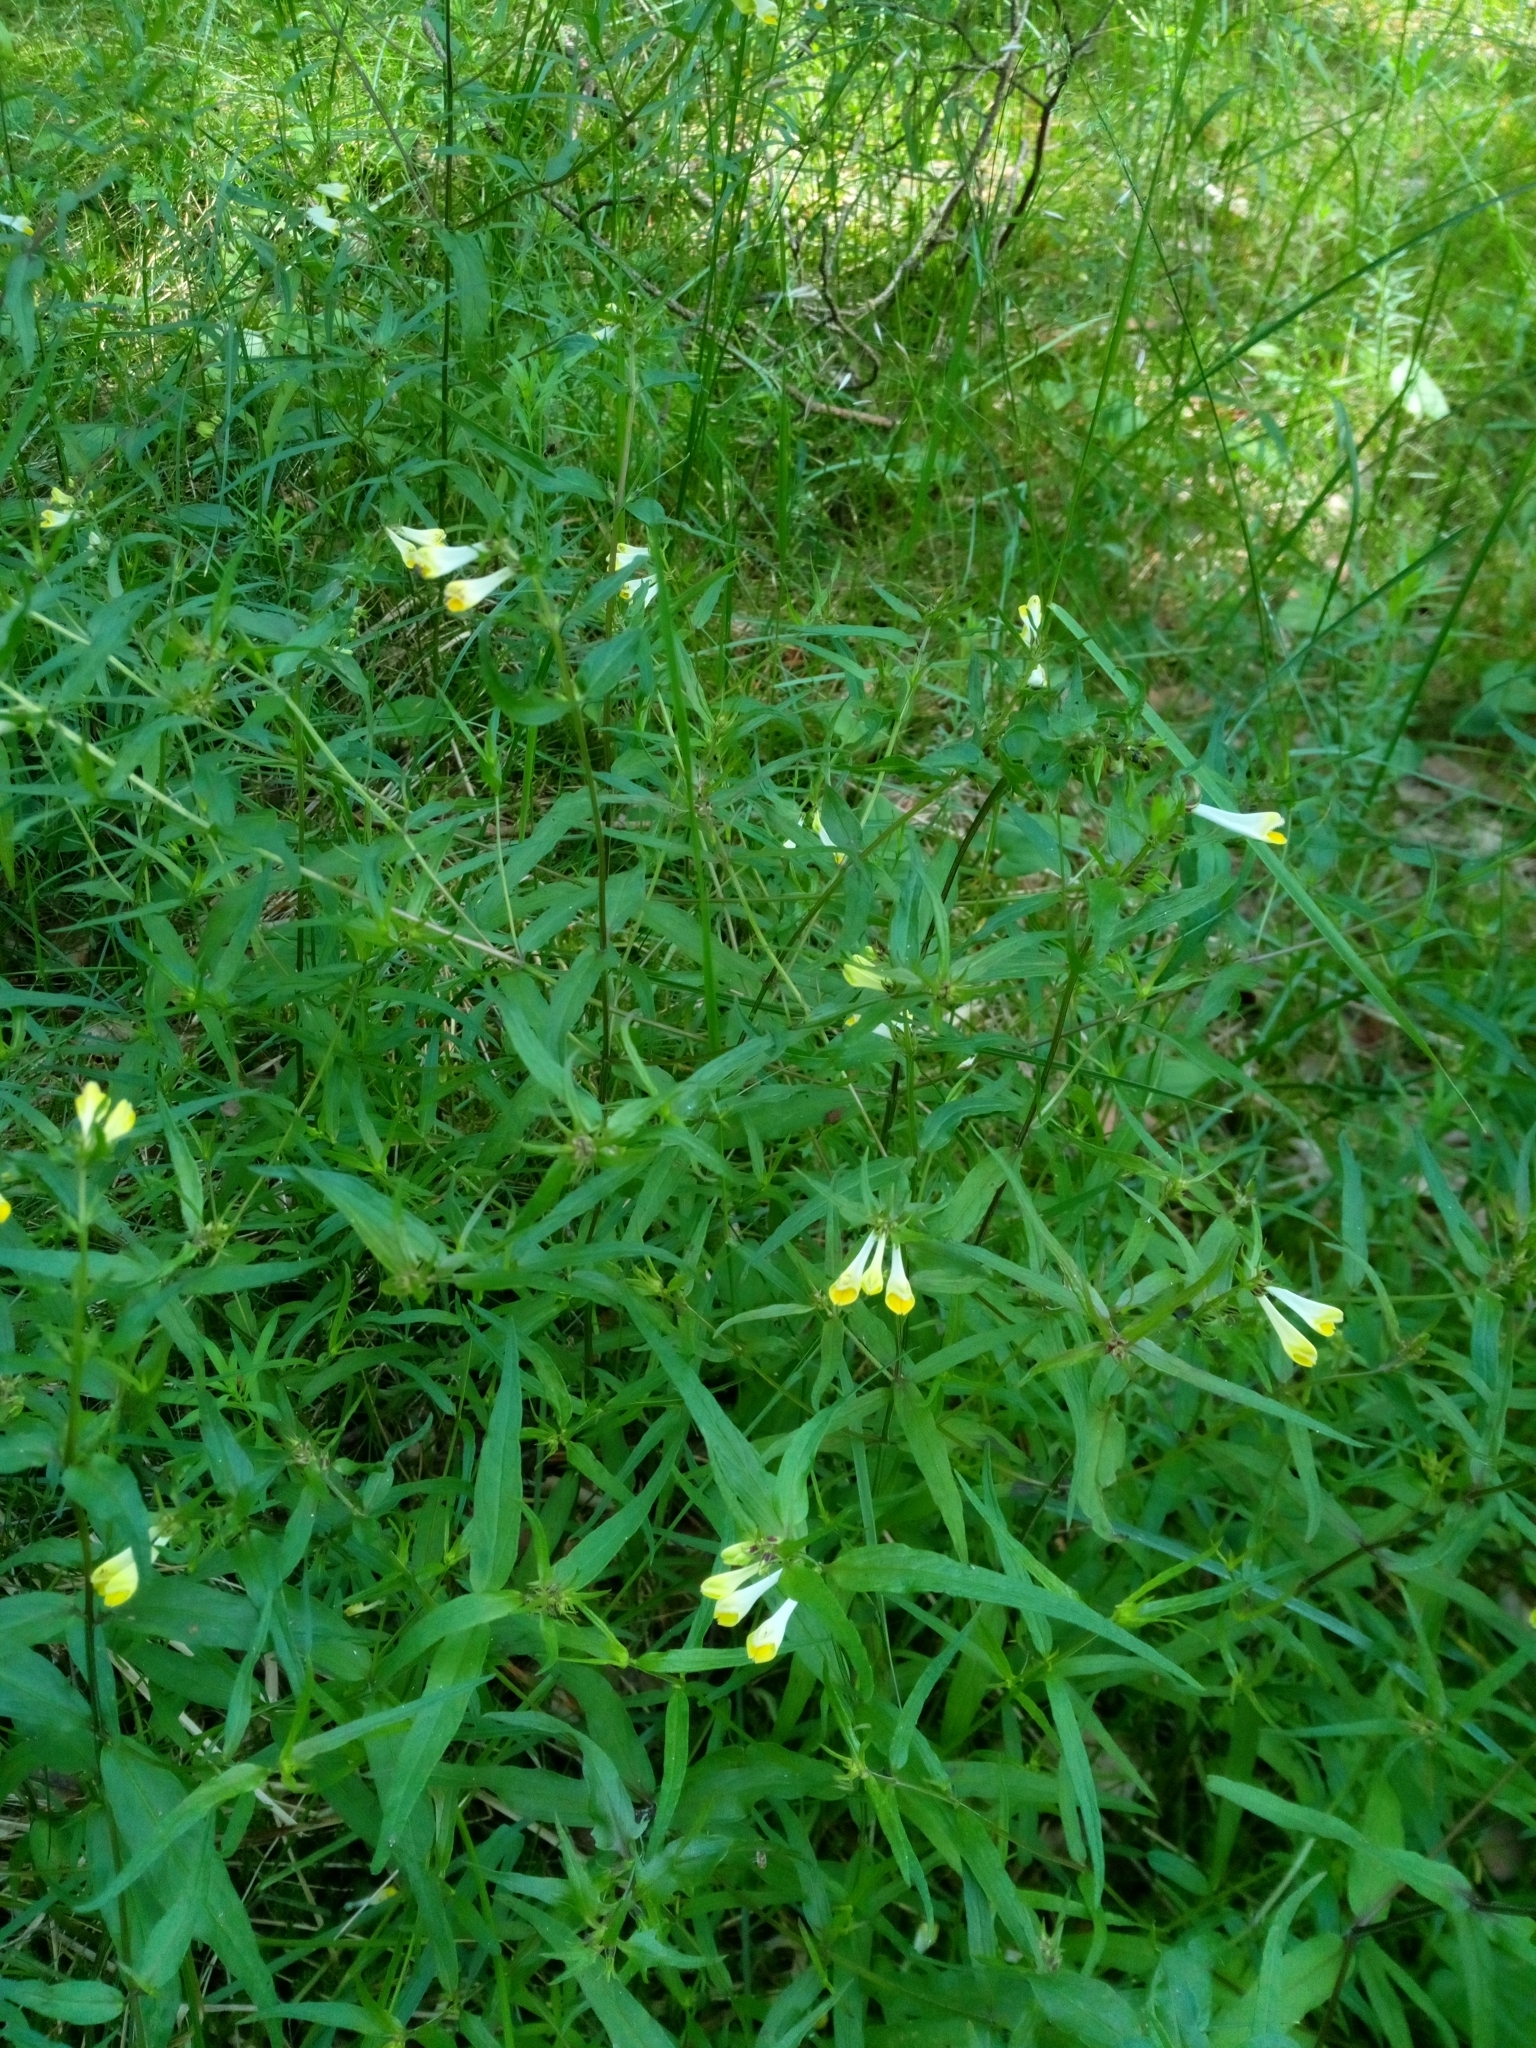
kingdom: Plantae
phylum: Tracheophyta
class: Magnoliopsida
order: Lamiales
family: Orobanchaceae
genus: Melampyrum
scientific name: Melampyrum pratense
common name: Common cow-wheat
